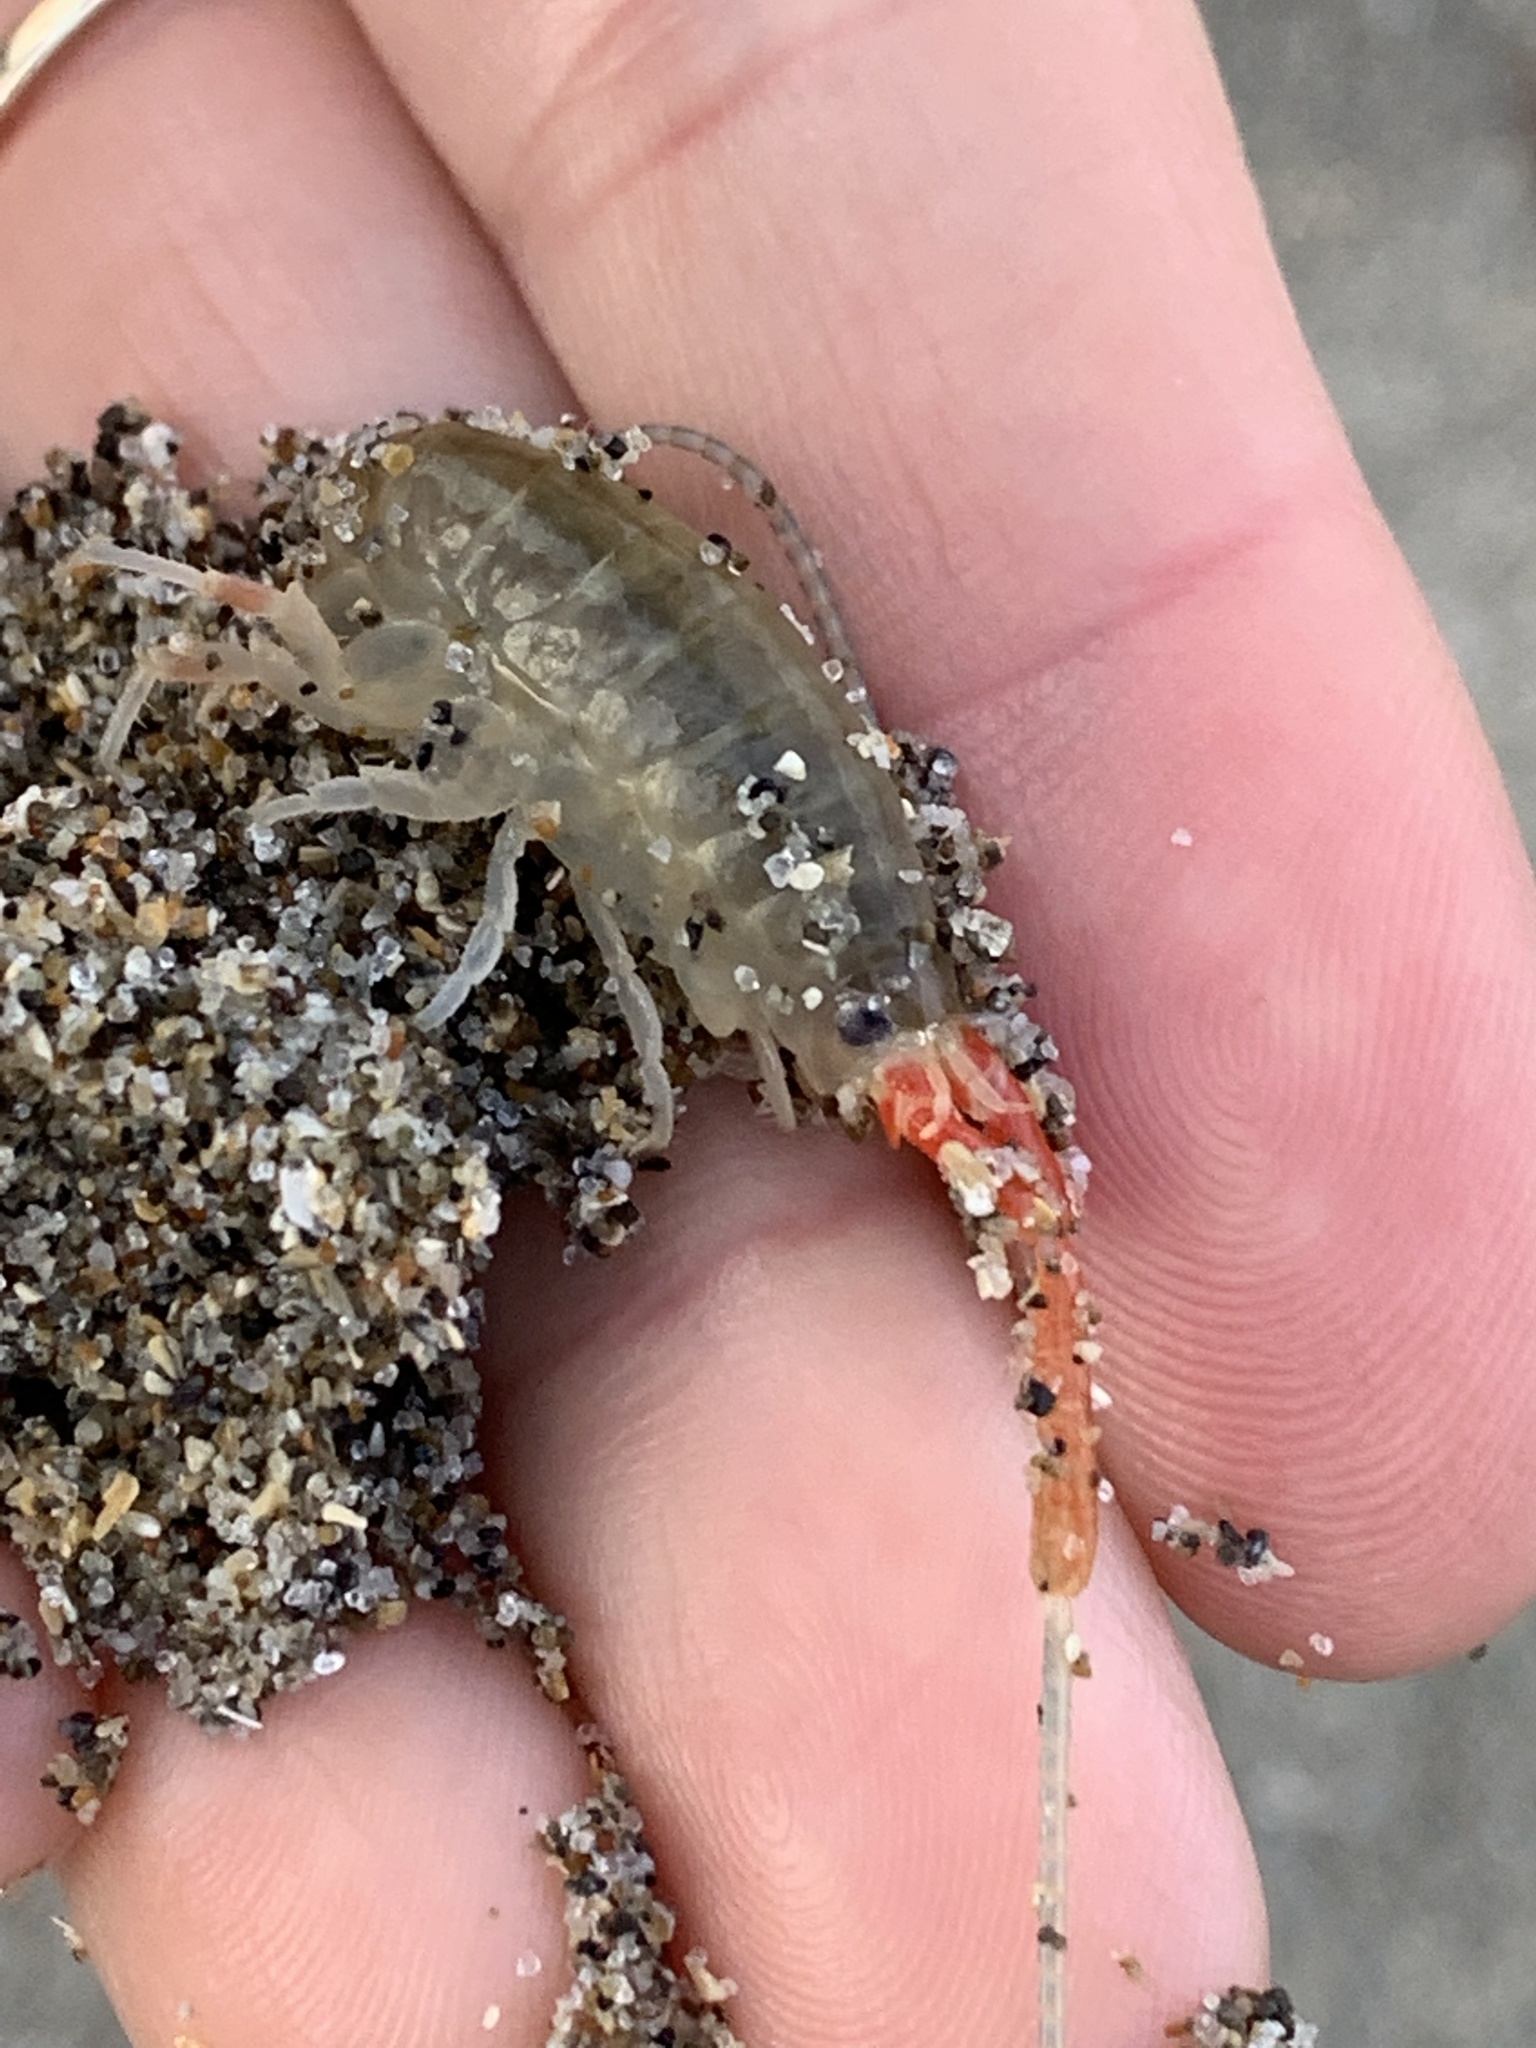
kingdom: Animalia
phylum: Arthropoda
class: Malacostraca
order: Amphipoda
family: Talitridae
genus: Megalorchestia
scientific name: Megalorchestia californiana
